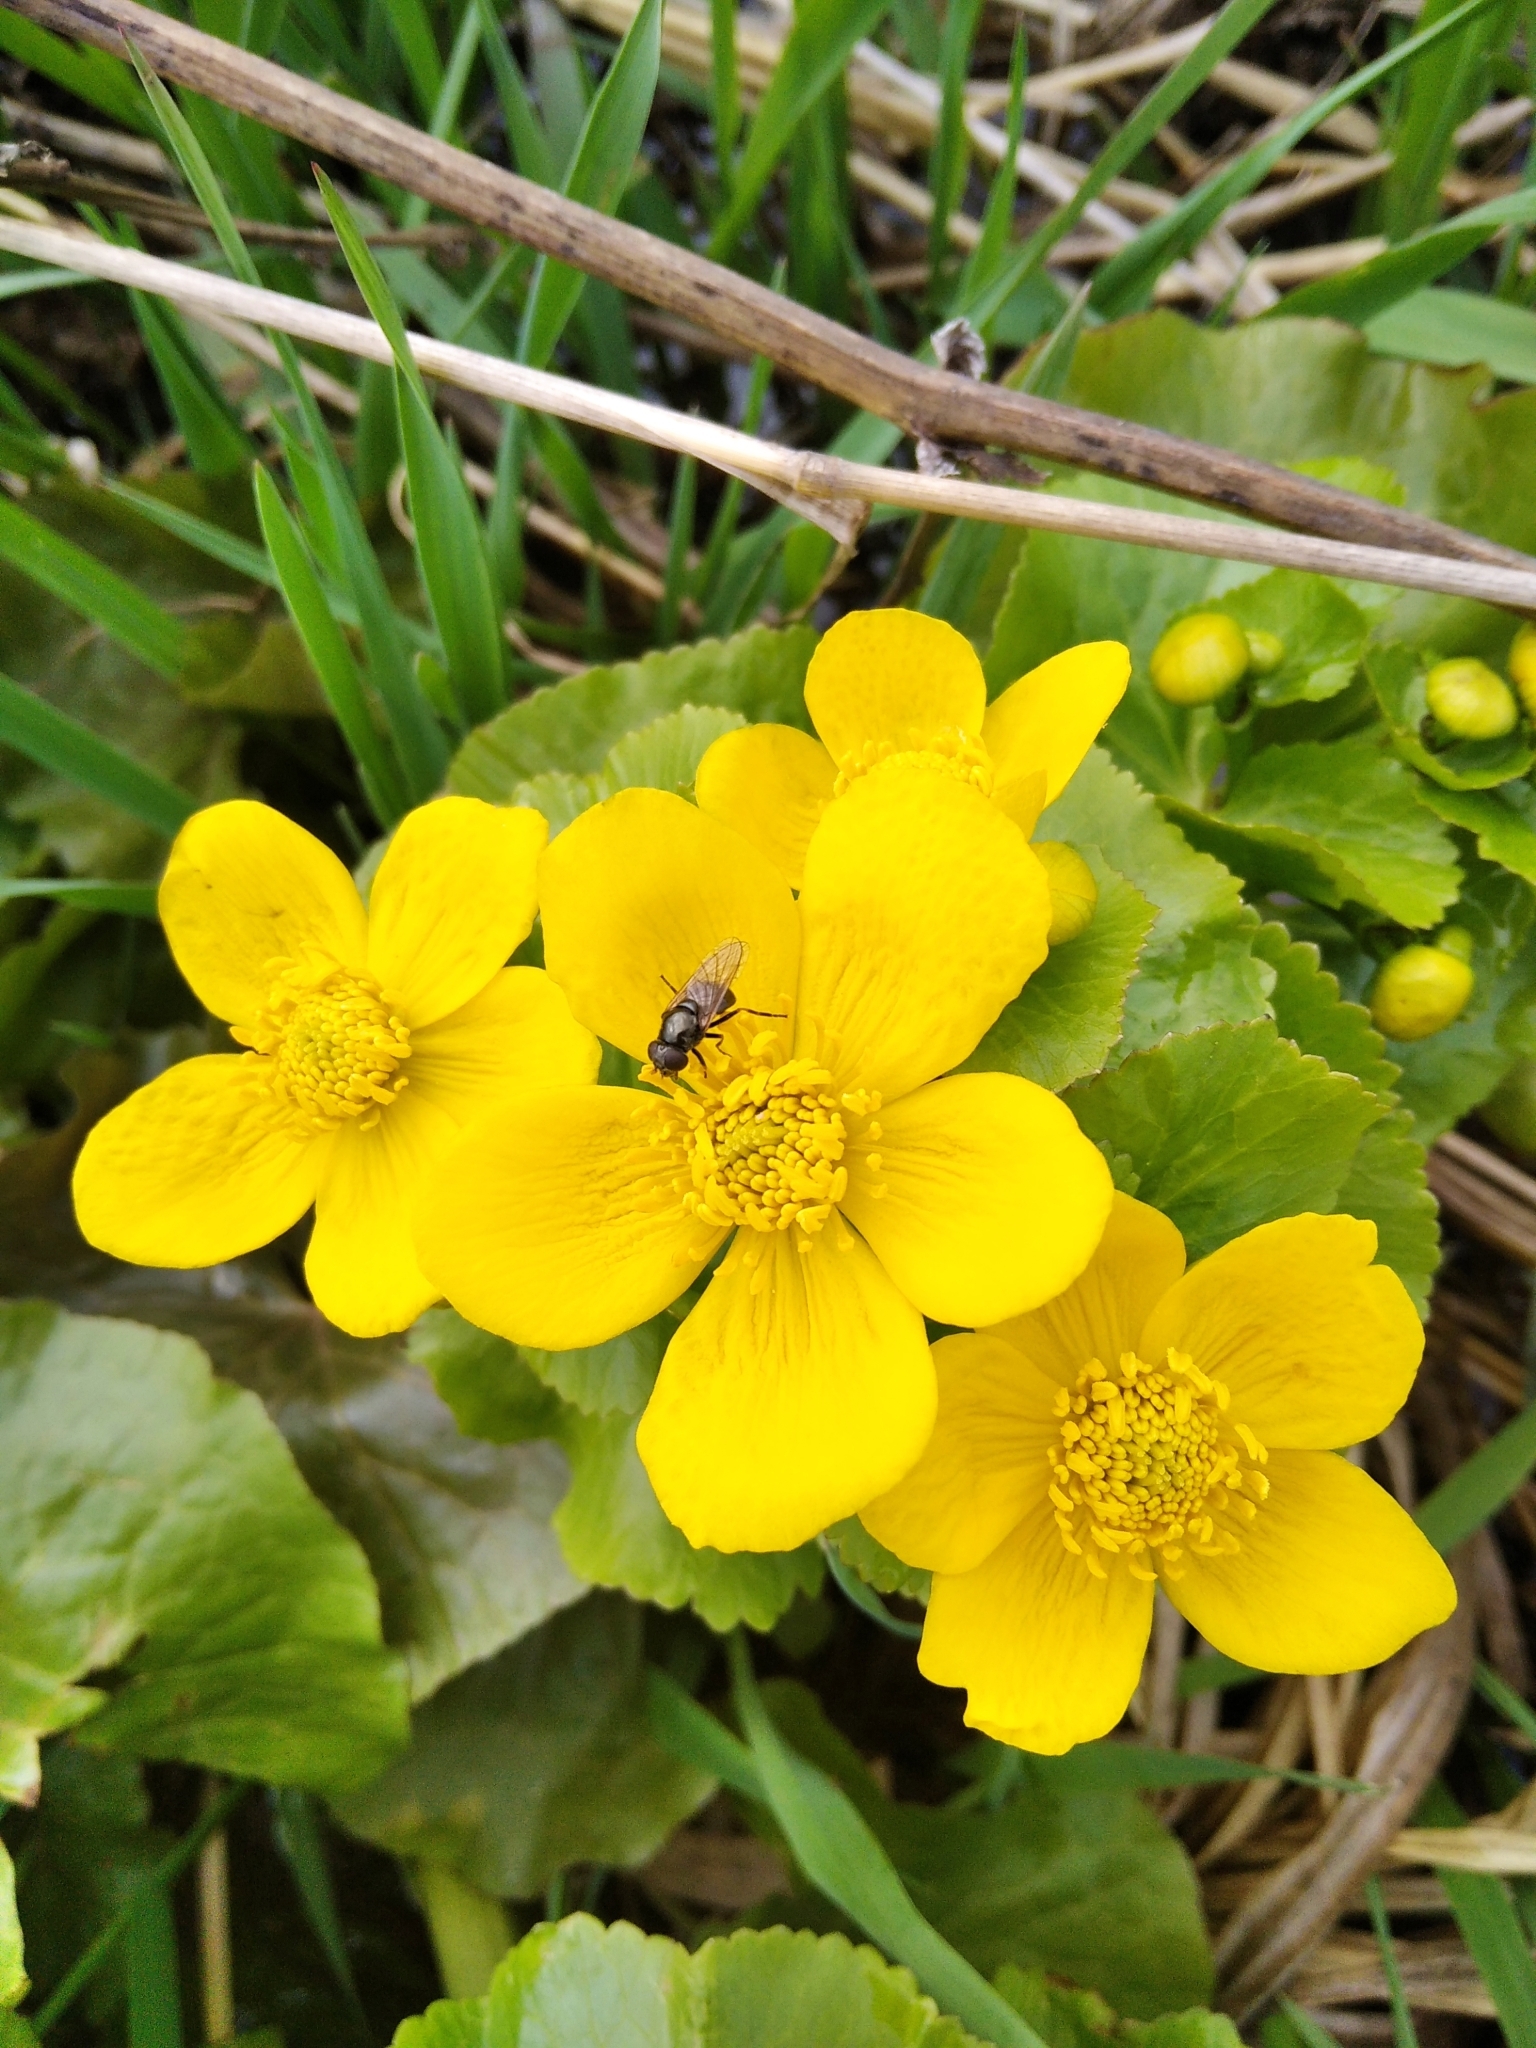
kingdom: Plantae
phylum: Tracheophyta
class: Magnoliopsida
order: Ranunculales
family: Ranunculaceae
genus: Caltha
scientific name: Caltha palustris
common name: Marsh marigold
